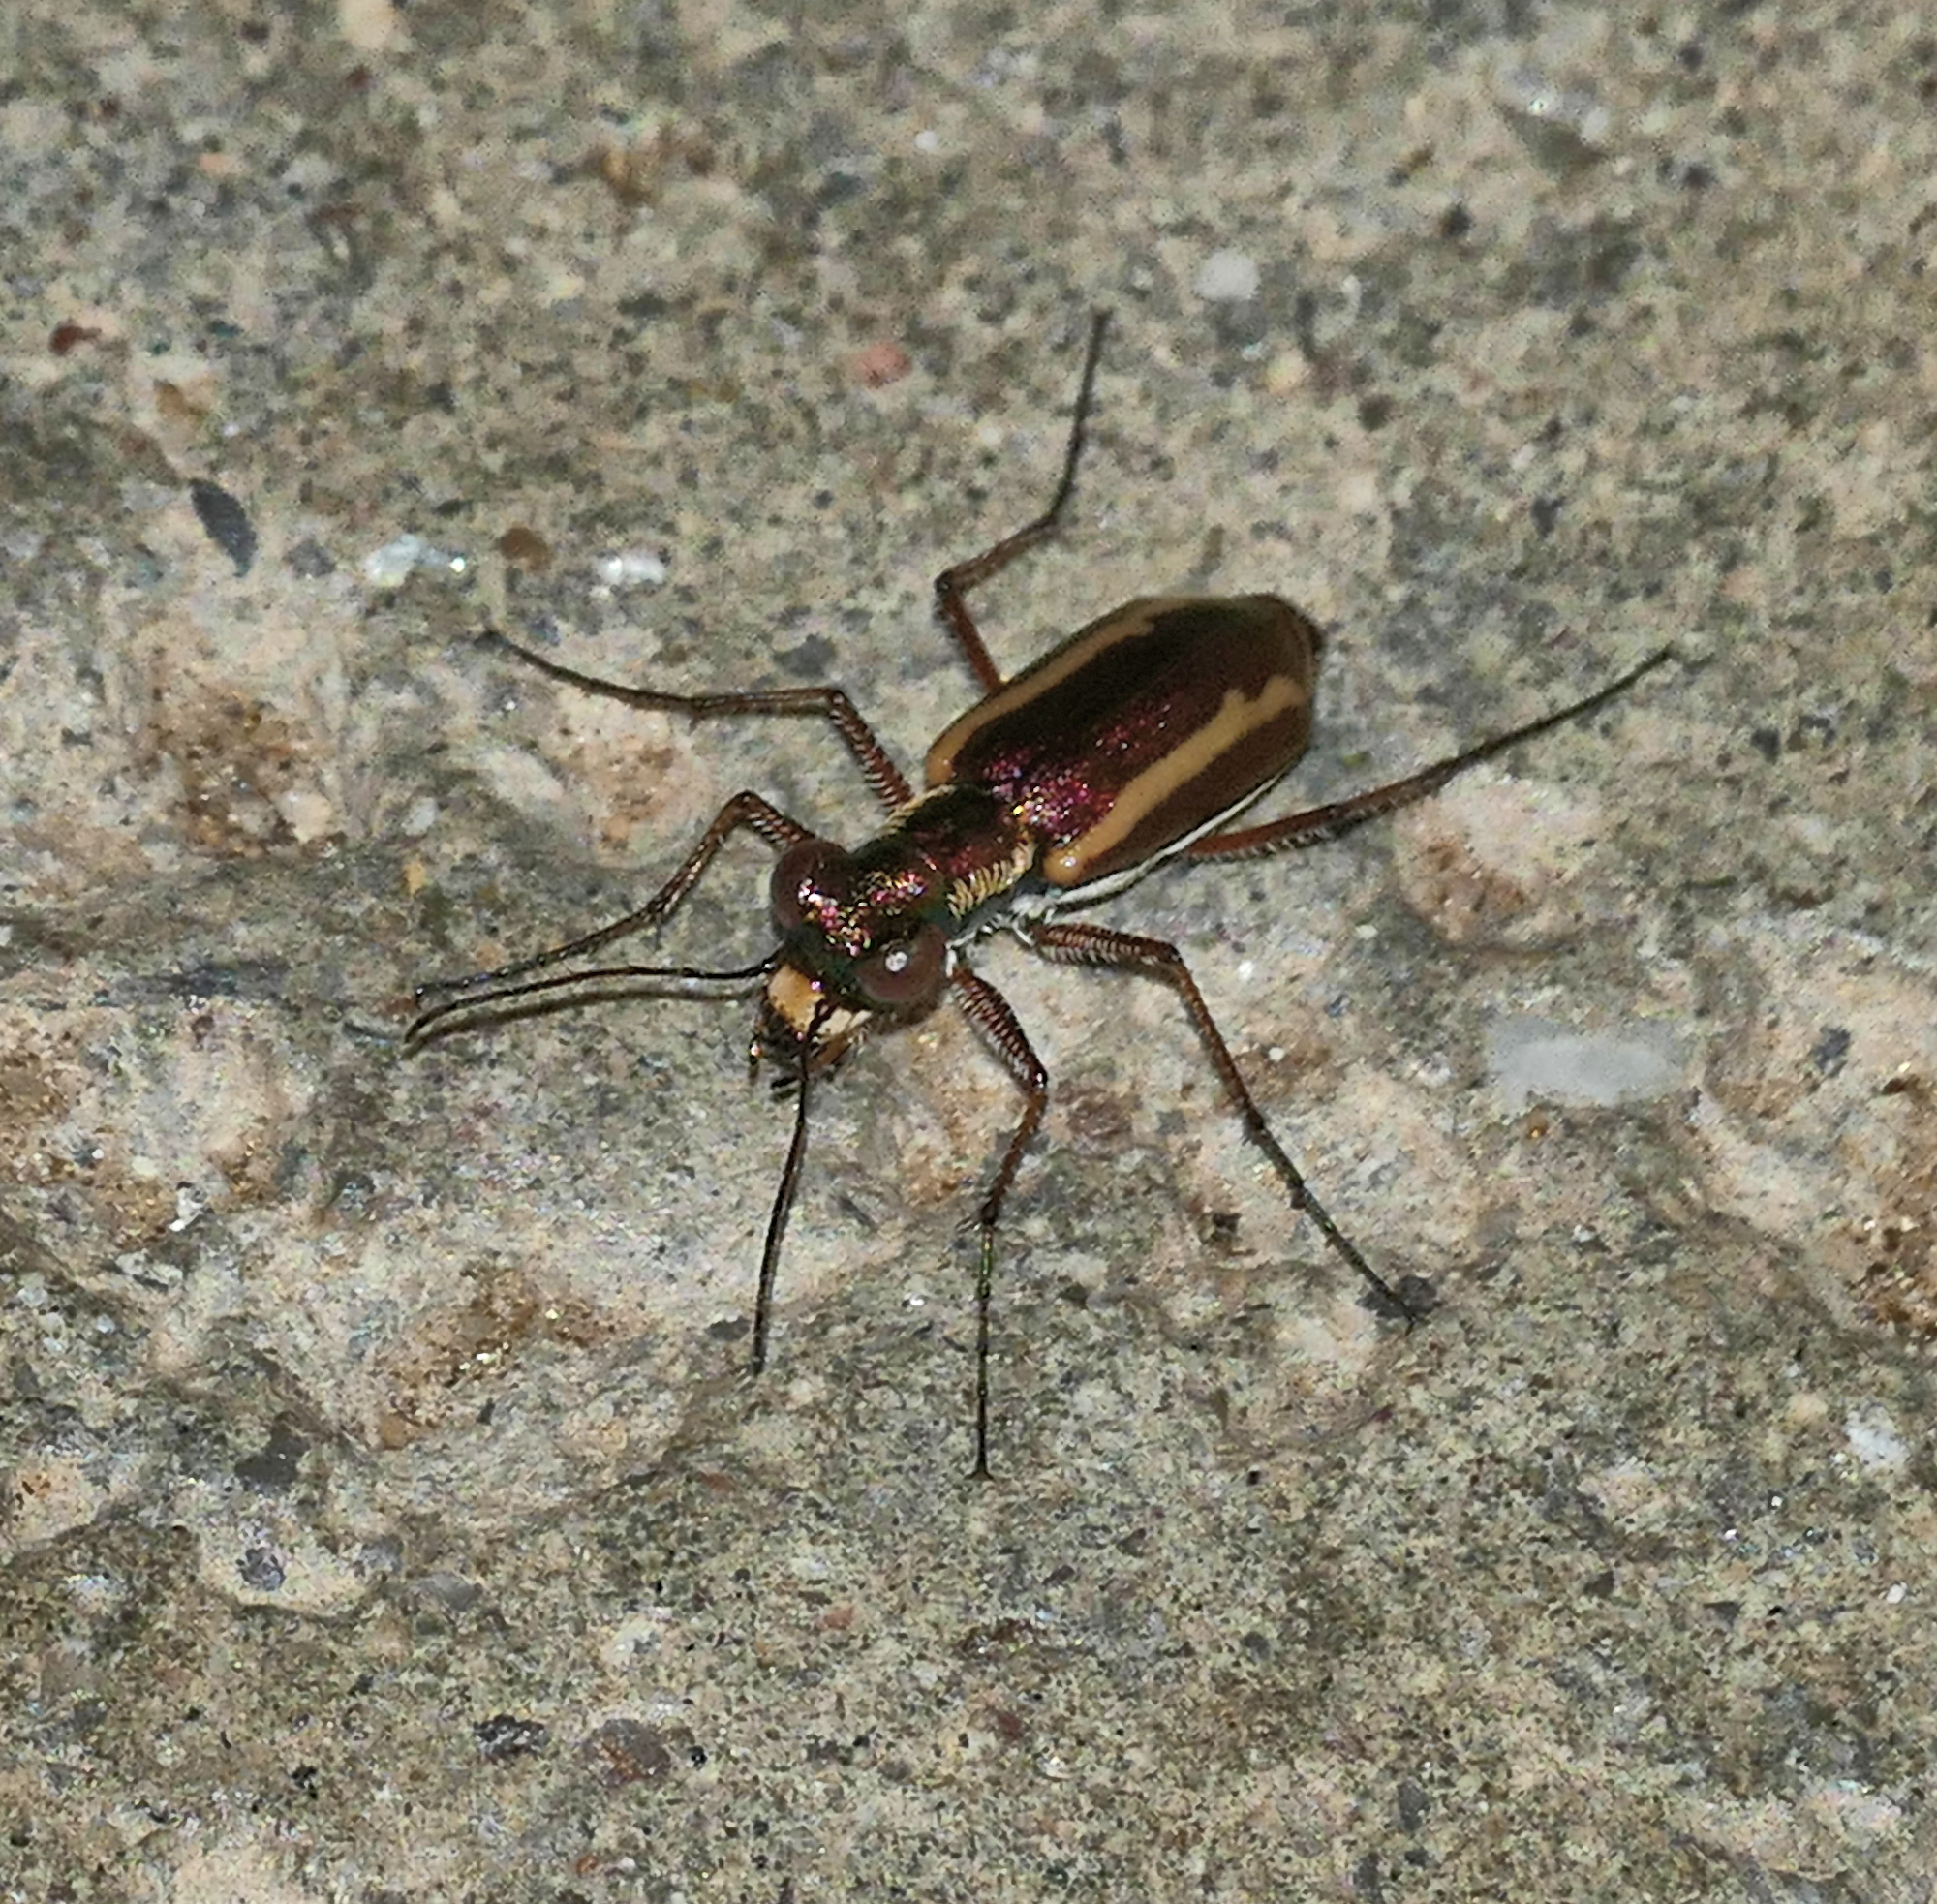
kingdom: Animalia
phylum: Arthropoda
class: Insecta
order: Coleoptera
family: Carabidae
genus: Cylindera
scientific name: Cylindera lemniscata
